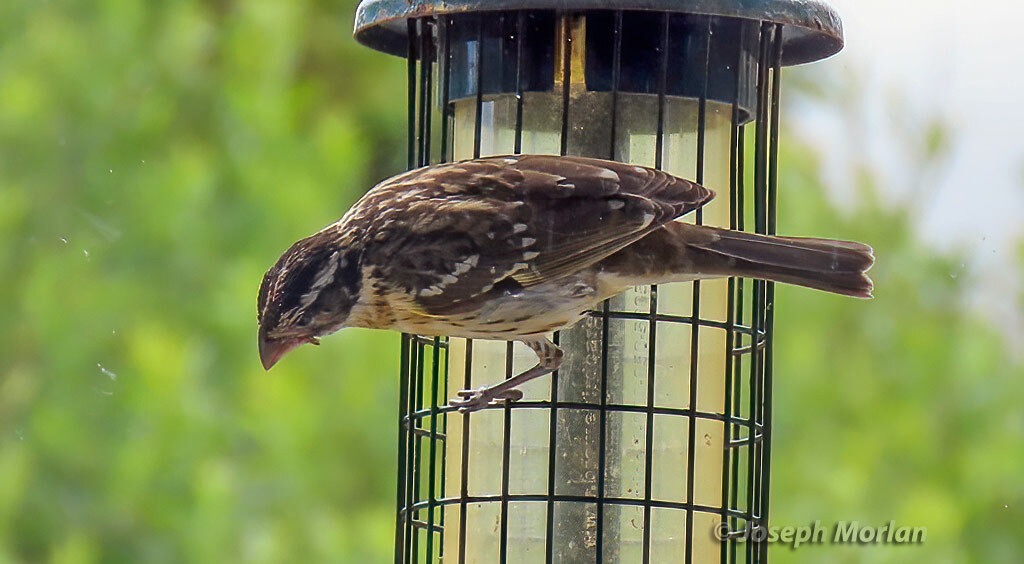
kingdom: Animalia
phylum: Chordata
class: Aves
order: Passeriformes
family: Cardinalidae
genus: Pheucticus
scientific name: Pheucticus melanocephalus
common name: Black-headed grosbeak
